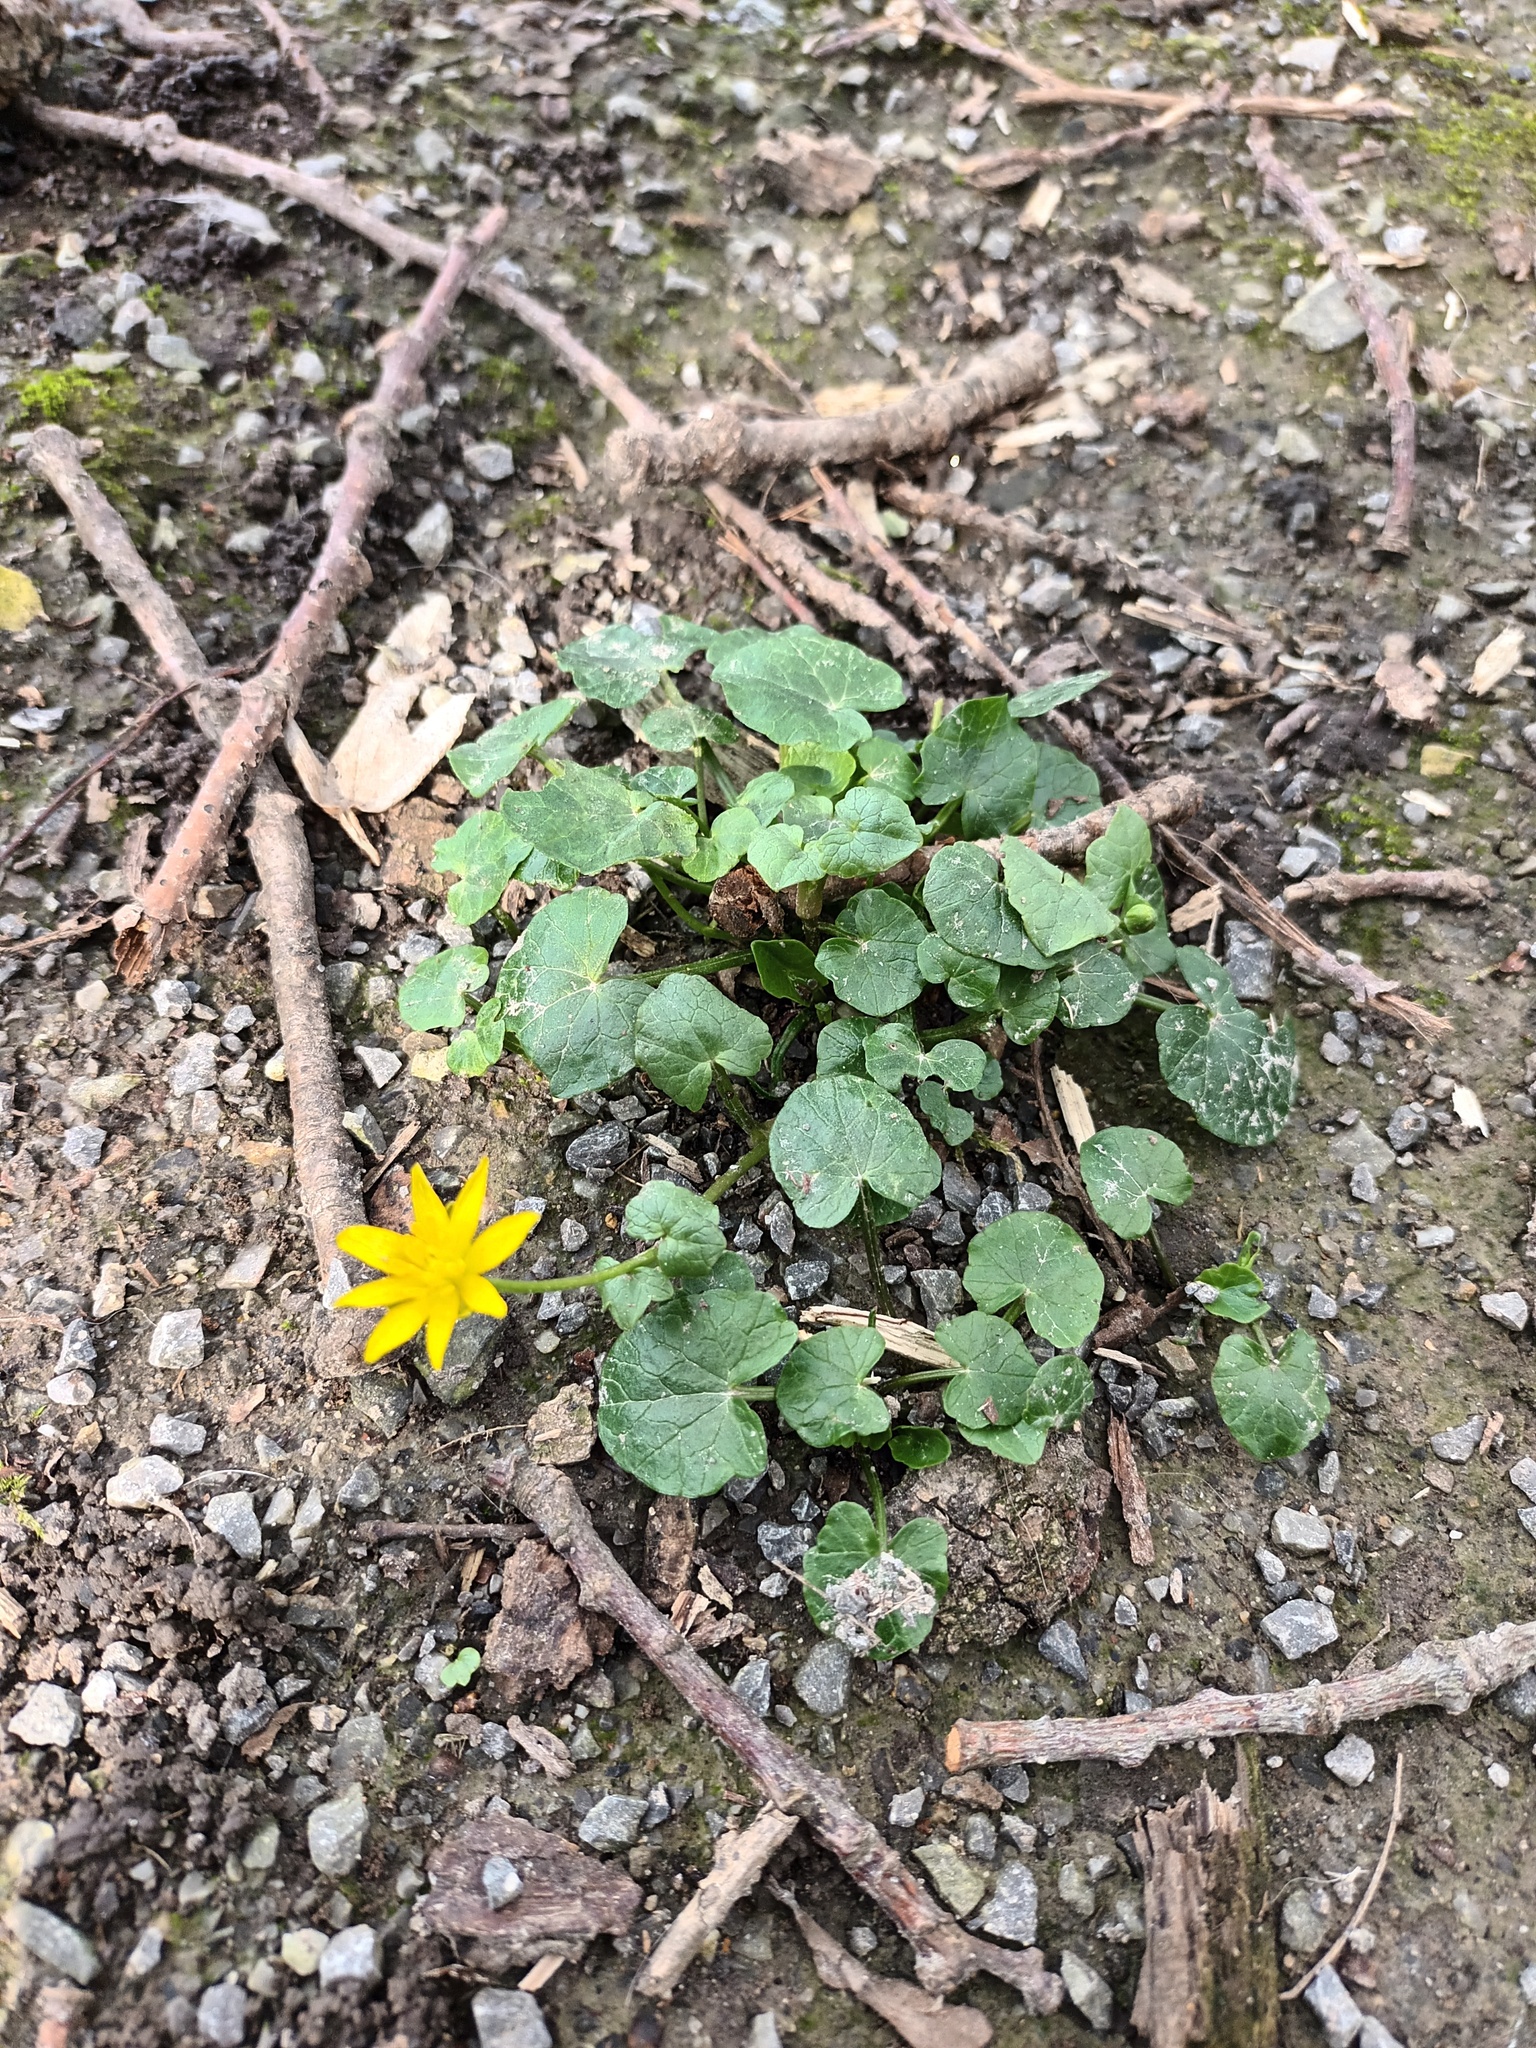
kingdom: Plantae
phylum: Tracheophyta
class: Magnoliopsida
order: Ranunculales
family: Ranunculaceae
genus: Ficaria
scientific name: Ficaria verna
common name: Lesser celandine
